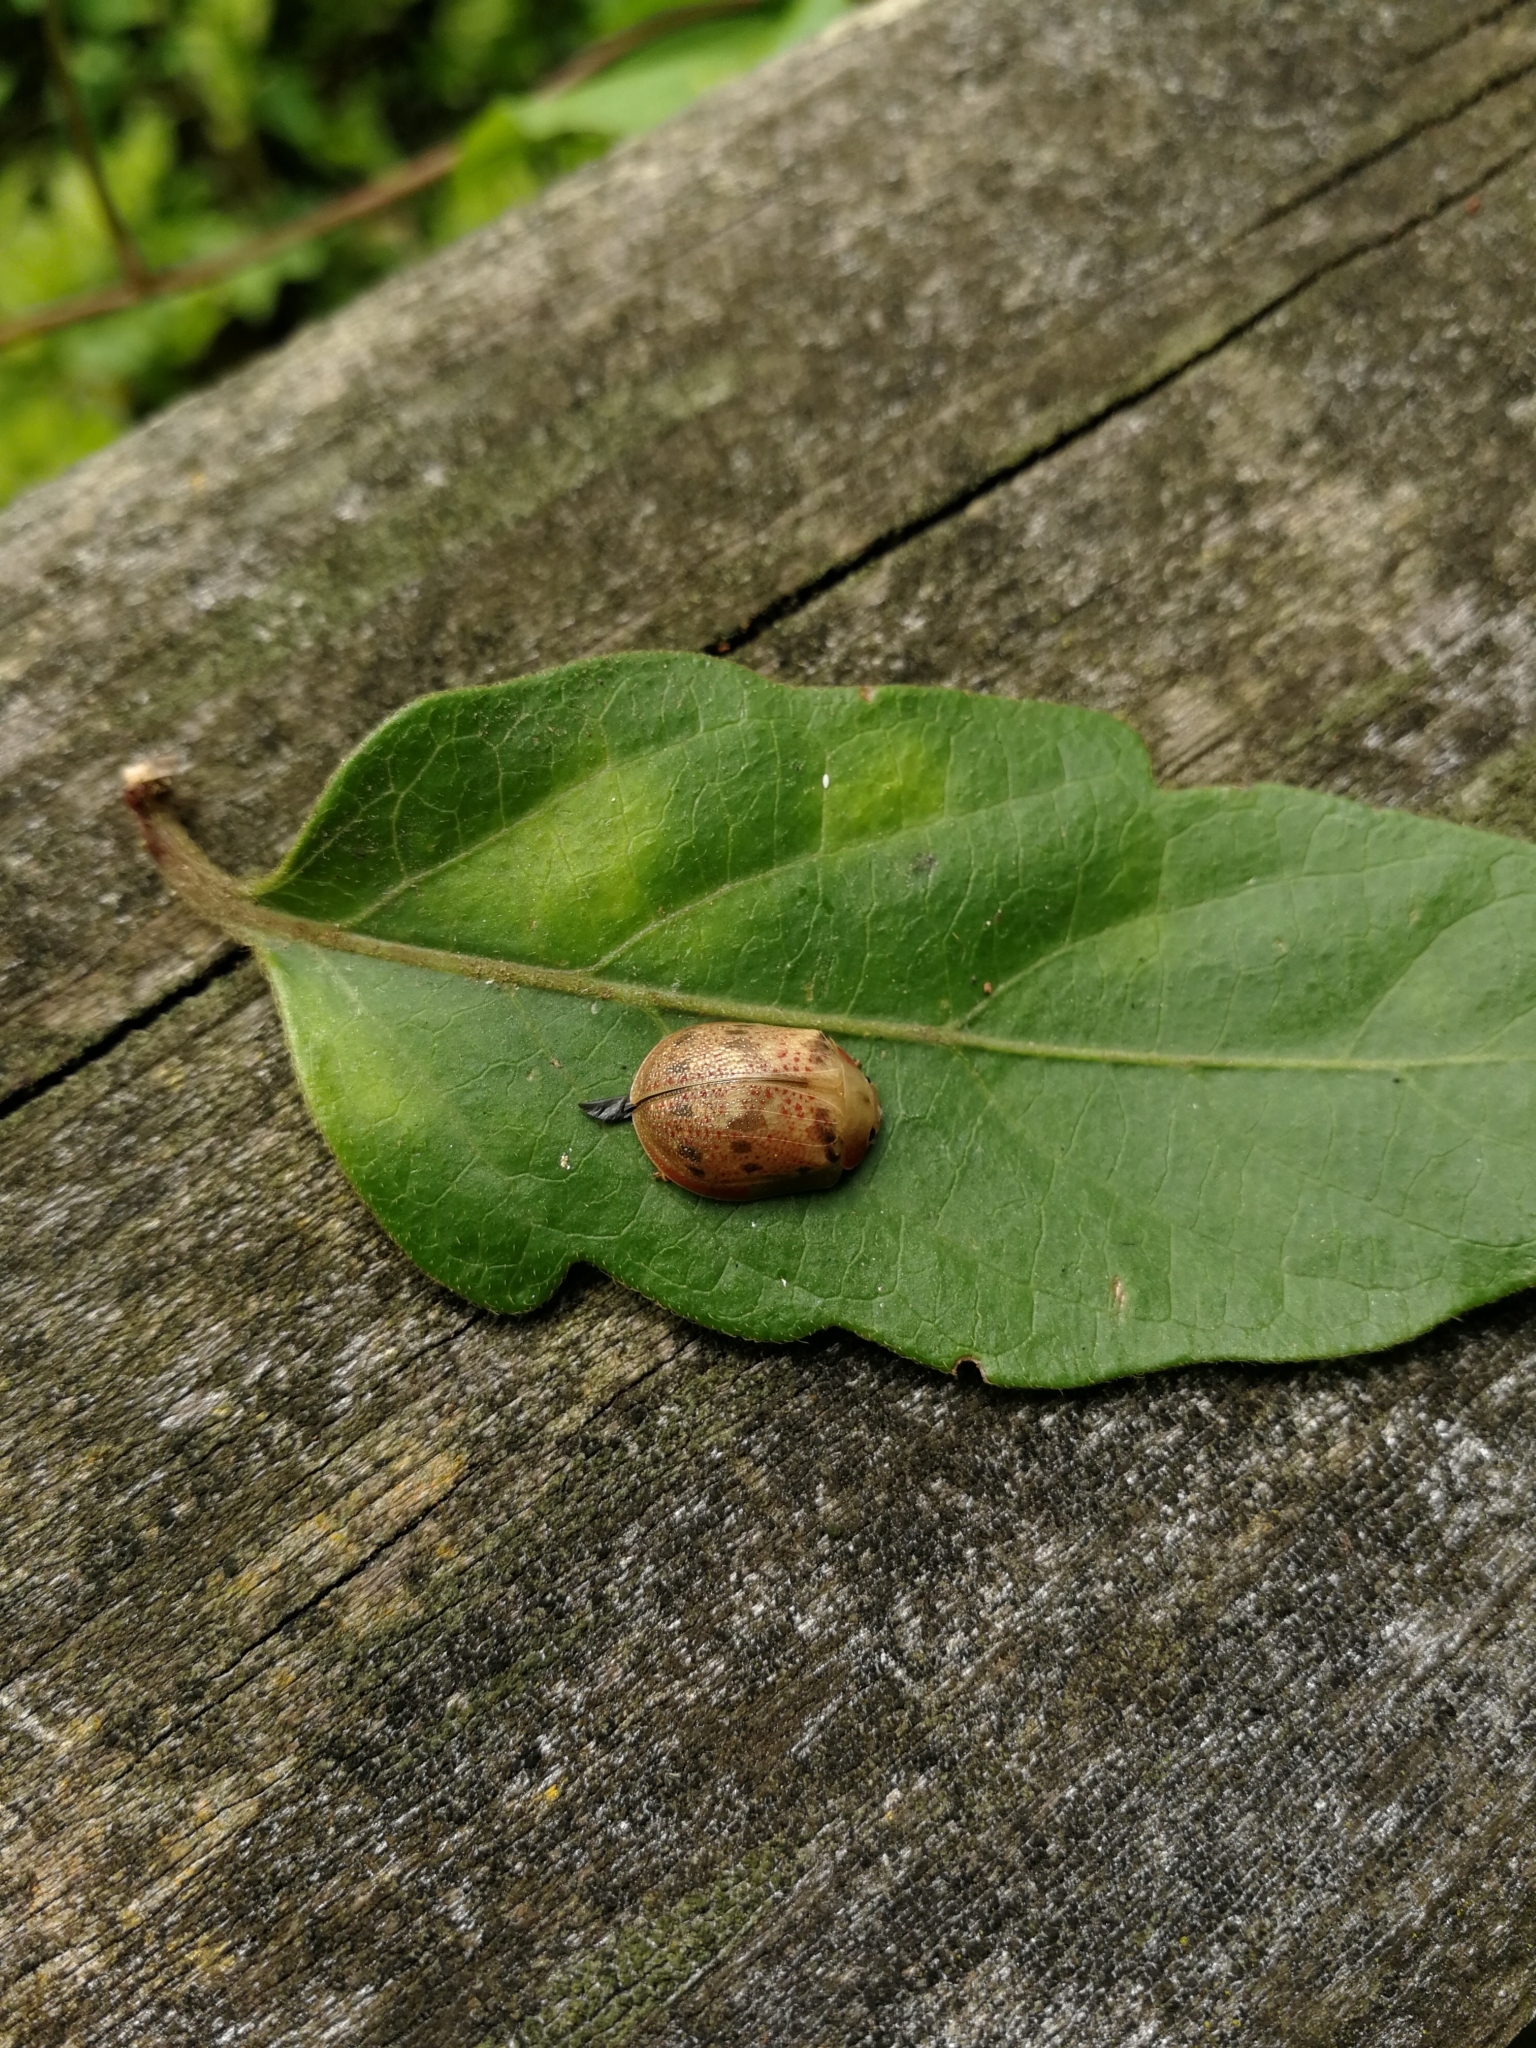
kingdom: Animalia
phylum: Arthropoda
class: Insecta
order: Coleoptera
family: Chrysomelidae
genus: Paropsis
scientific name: Paropsis charybdis
